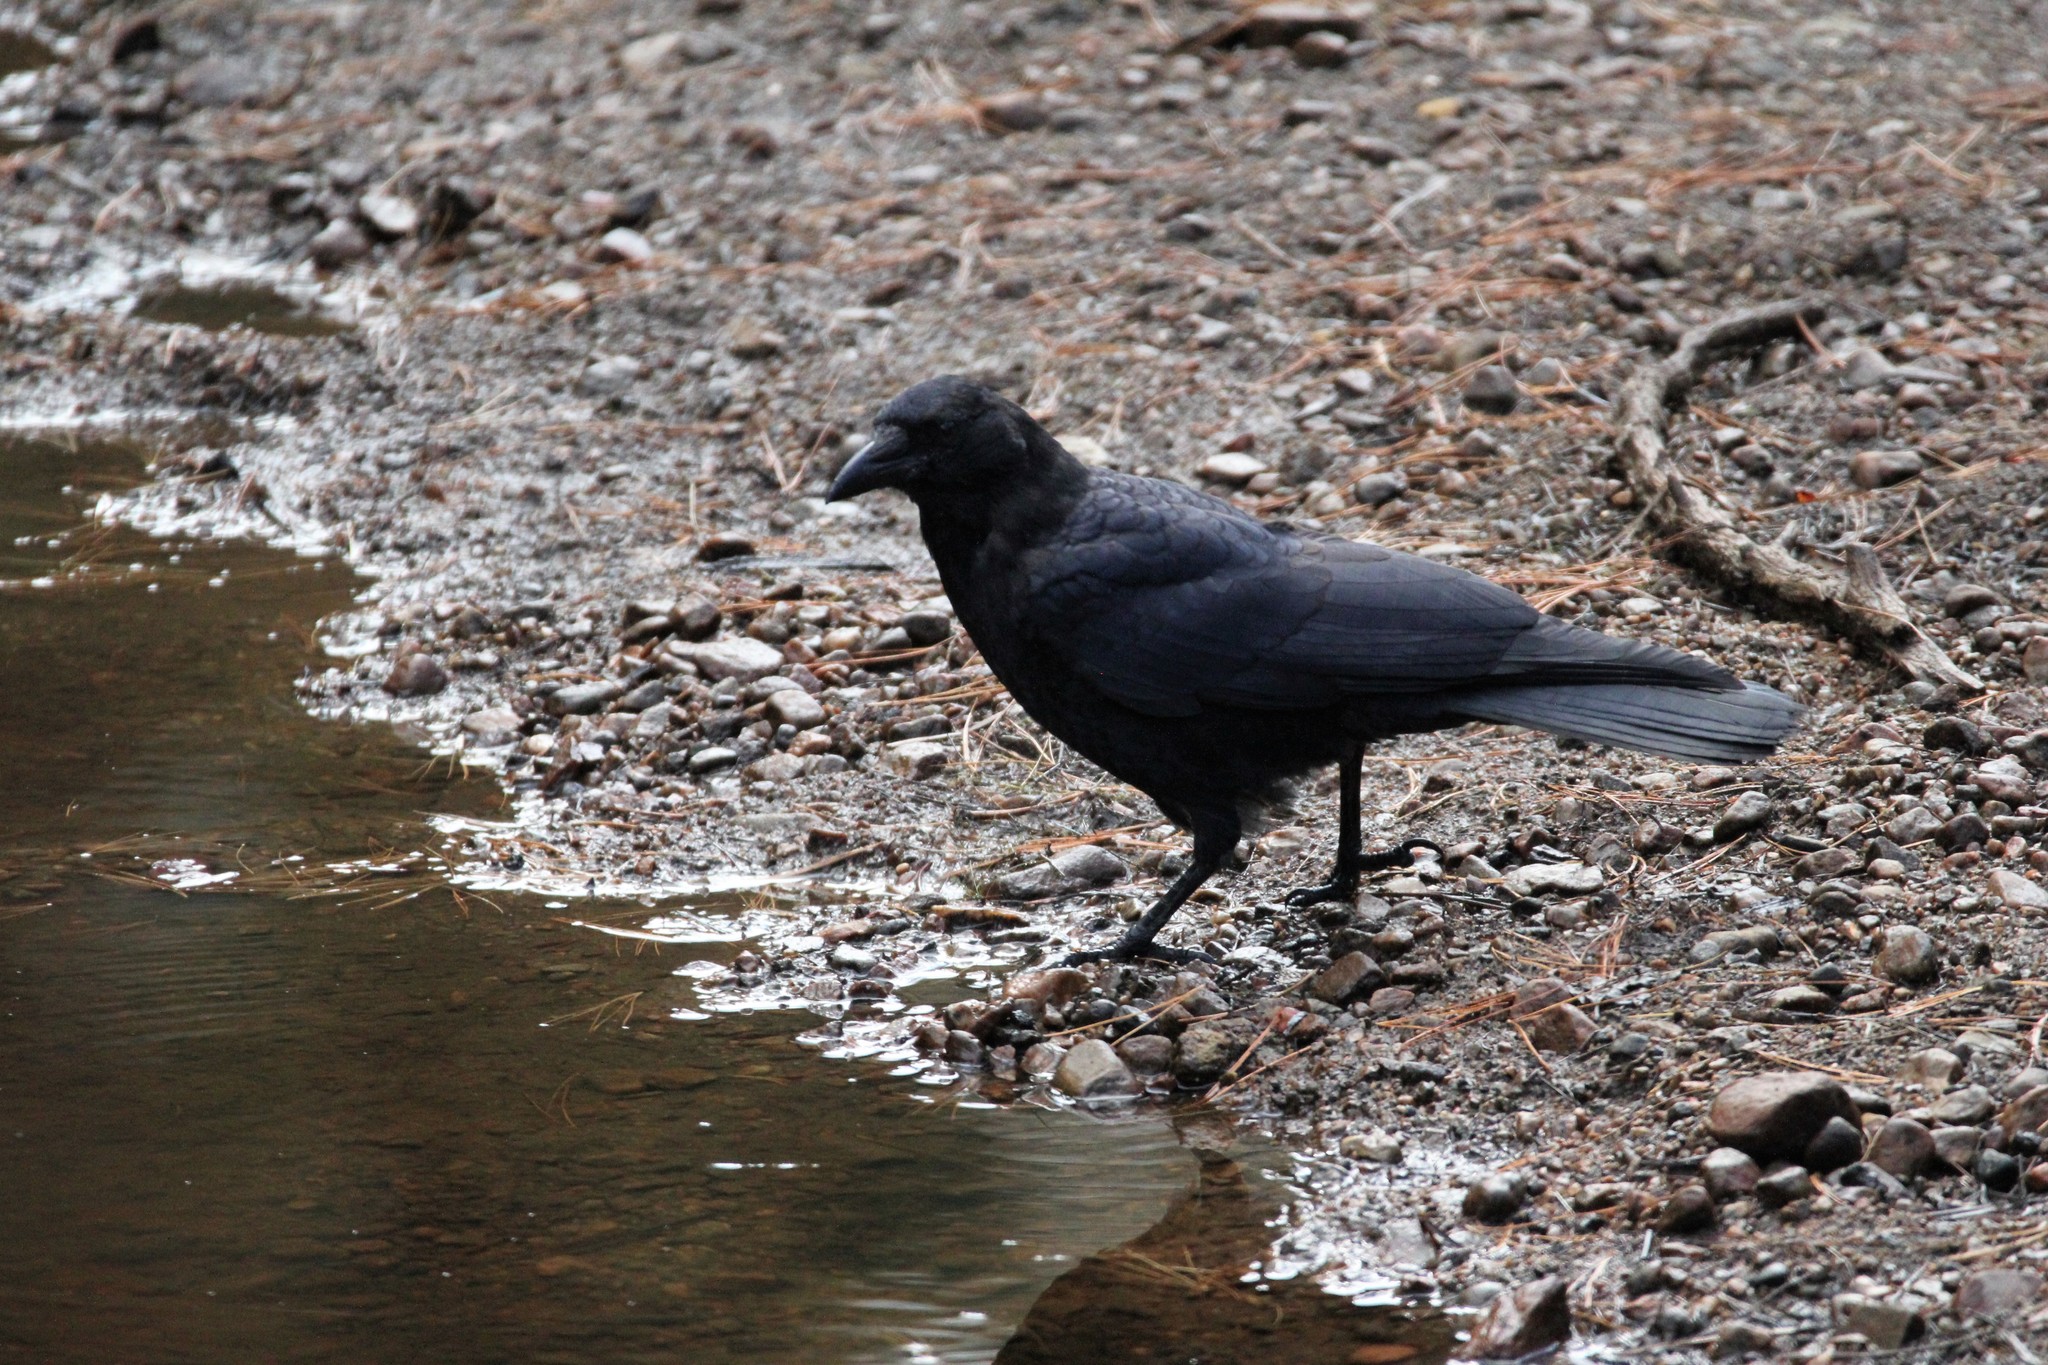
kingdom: Animalia
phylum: Chordata
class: Aves
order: Passeriformes
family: Corvidae
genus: Corvus
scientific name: Corvus brachyrhynchos
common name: American crow
